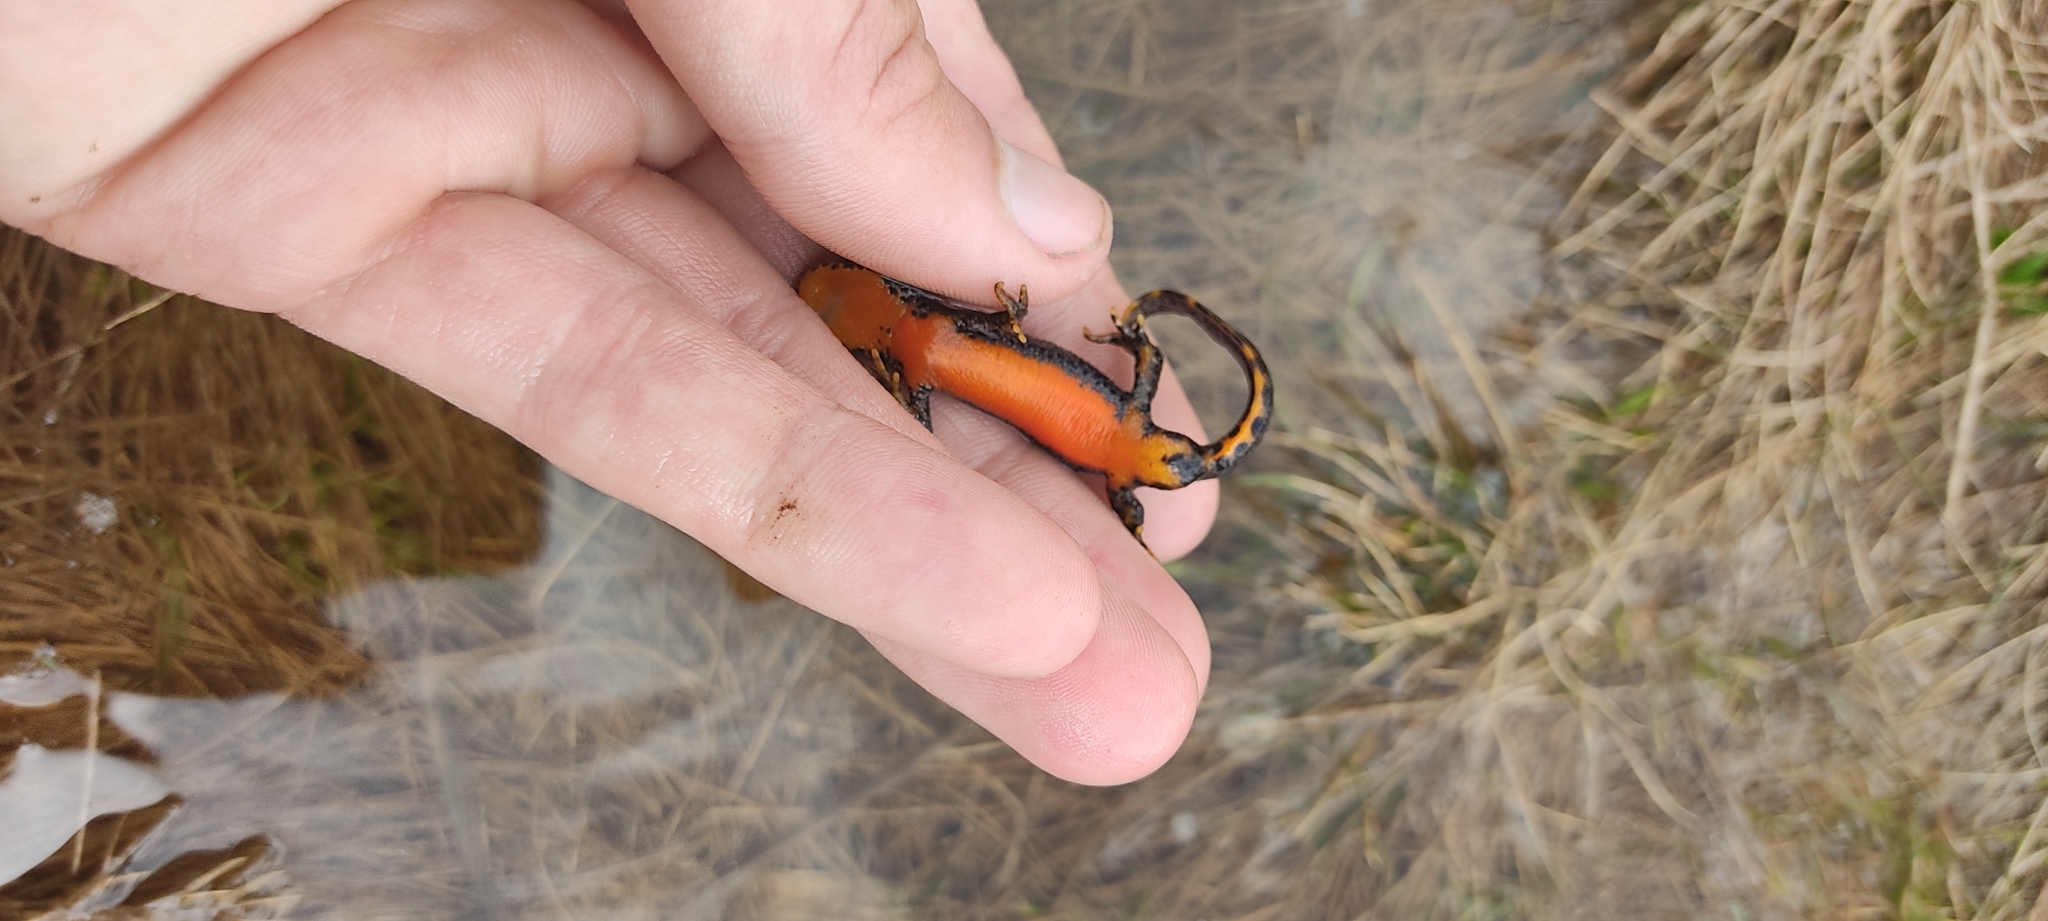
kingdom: Animalia
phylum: Chordata
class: Amphibia
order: Caudata
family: Salamandridae
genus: Ichthyosaura
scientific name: Ichthyosaura alpestris
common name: Alpine newt
